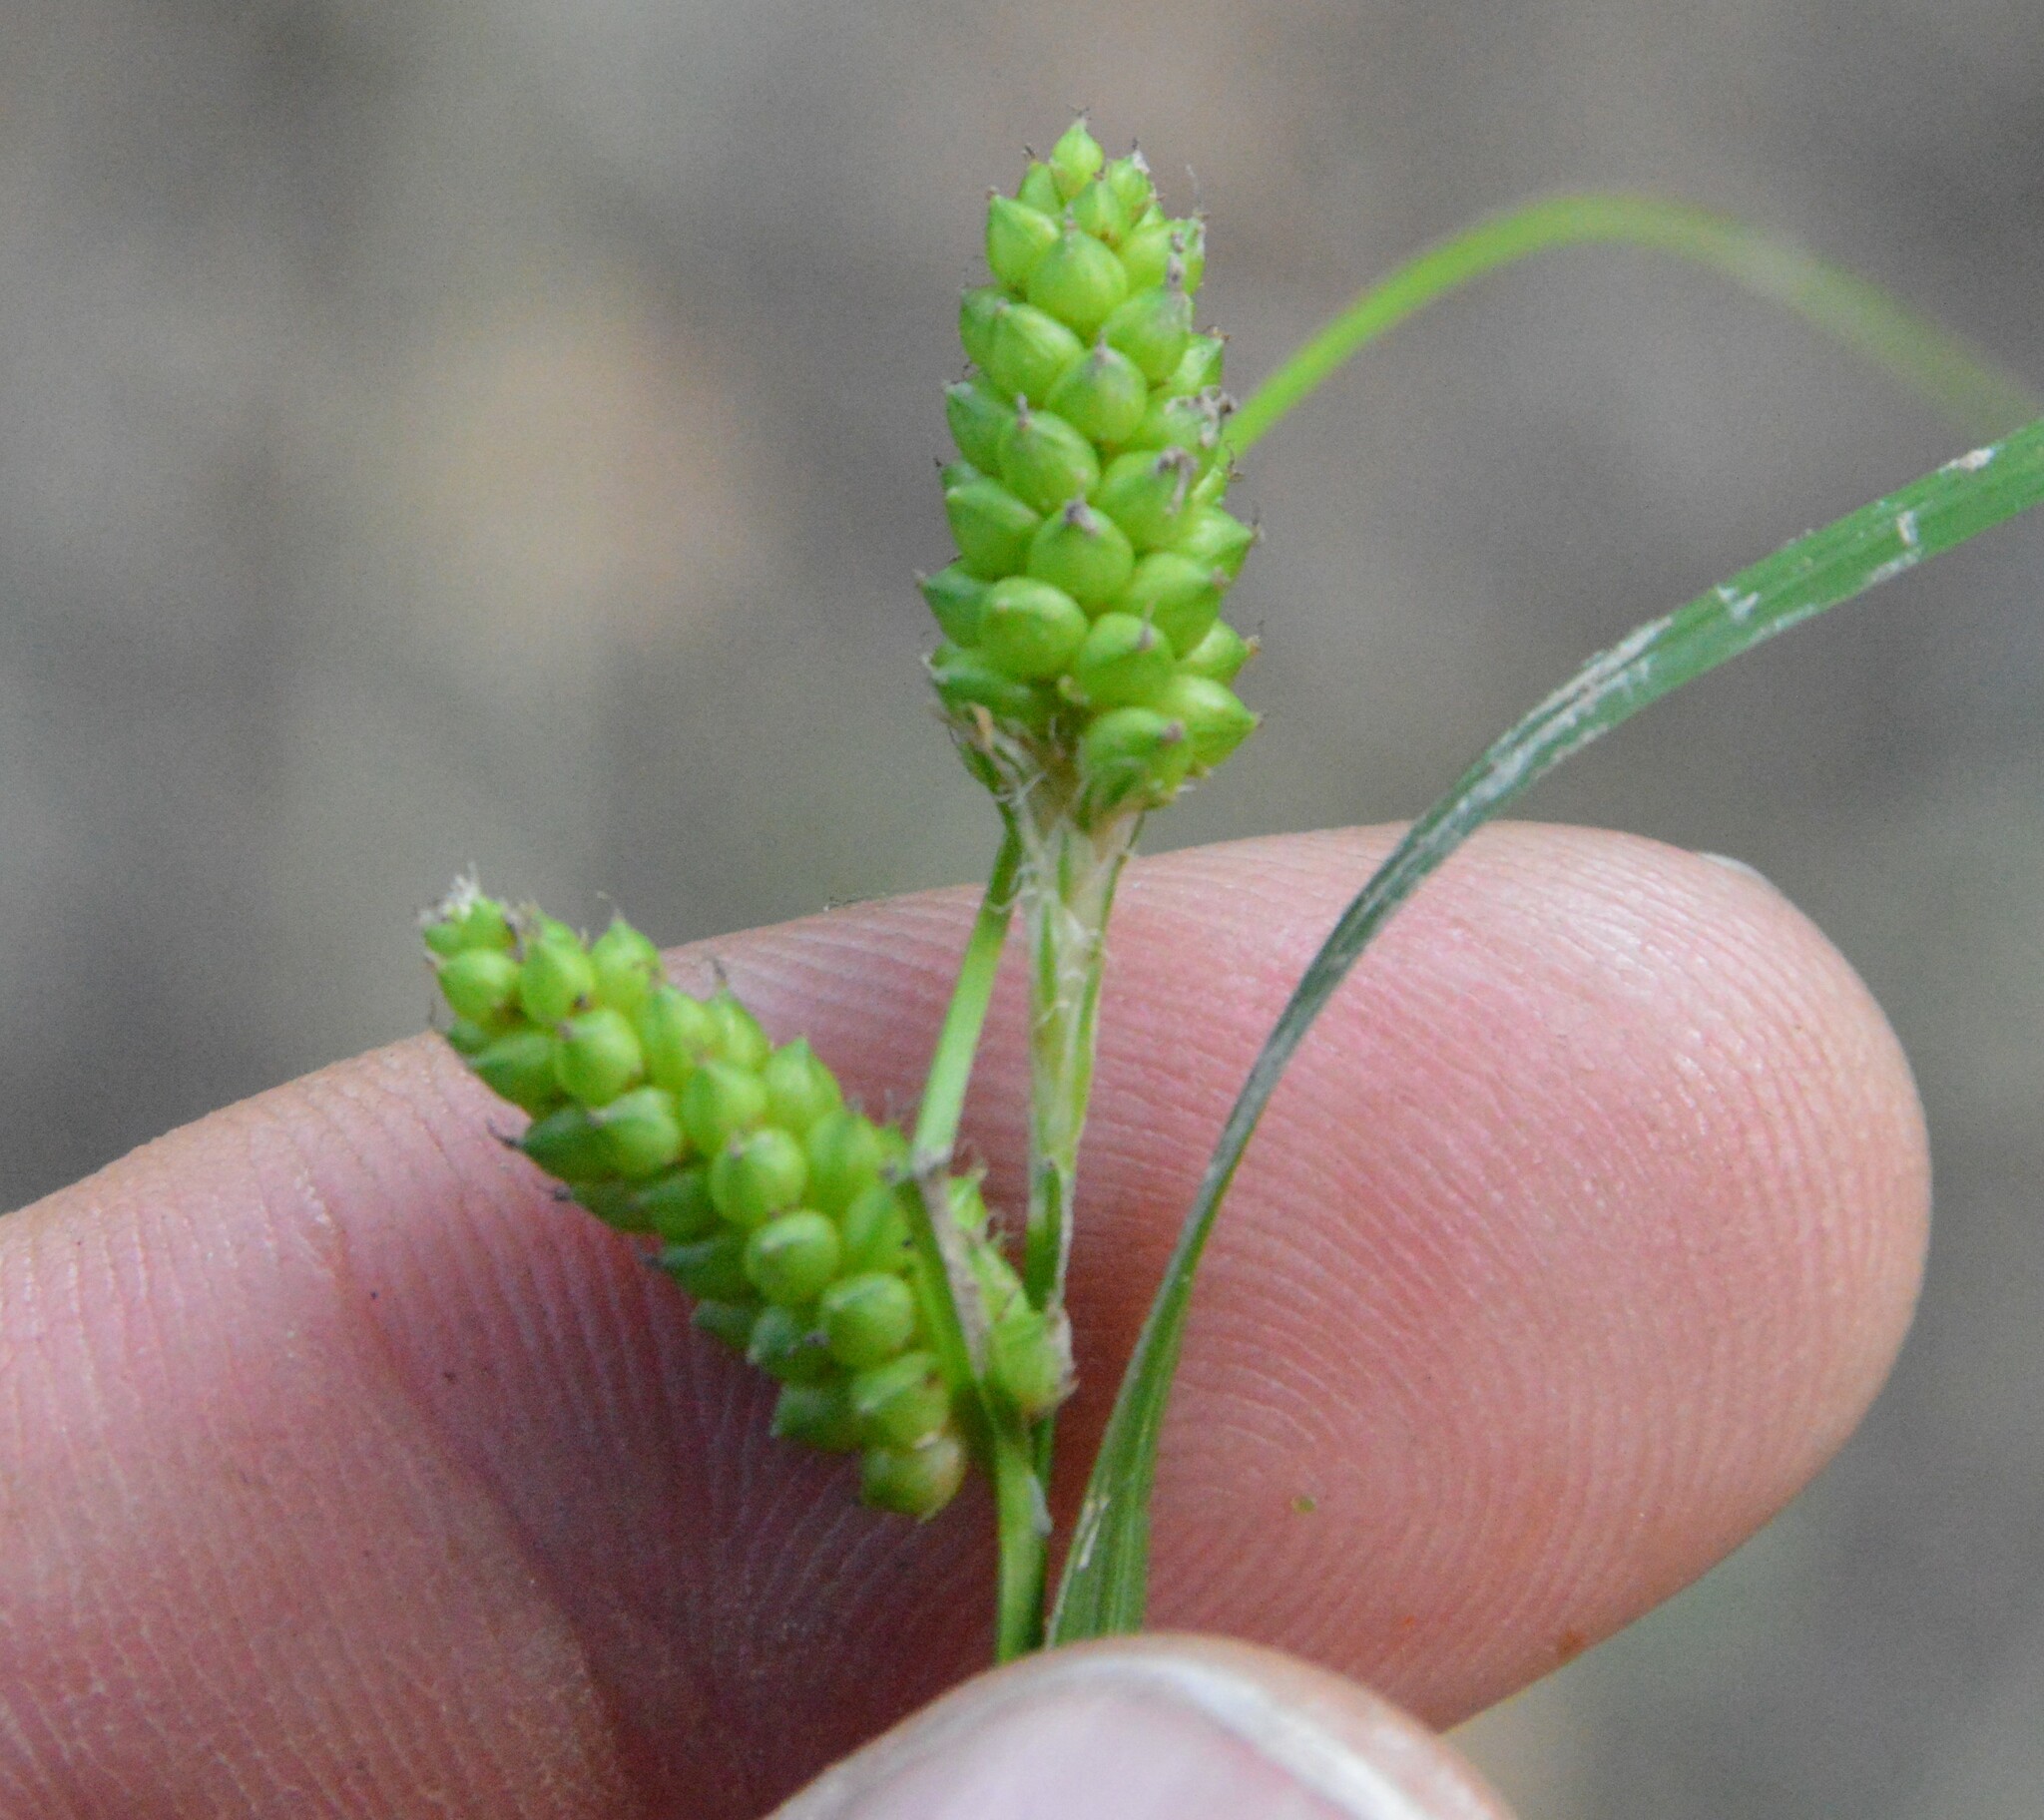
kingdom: Plantae
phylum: Tracheophyta
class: Liliopsida
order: Poales
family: Cyperaceae
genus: Carex
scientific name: Carex caroliniana
